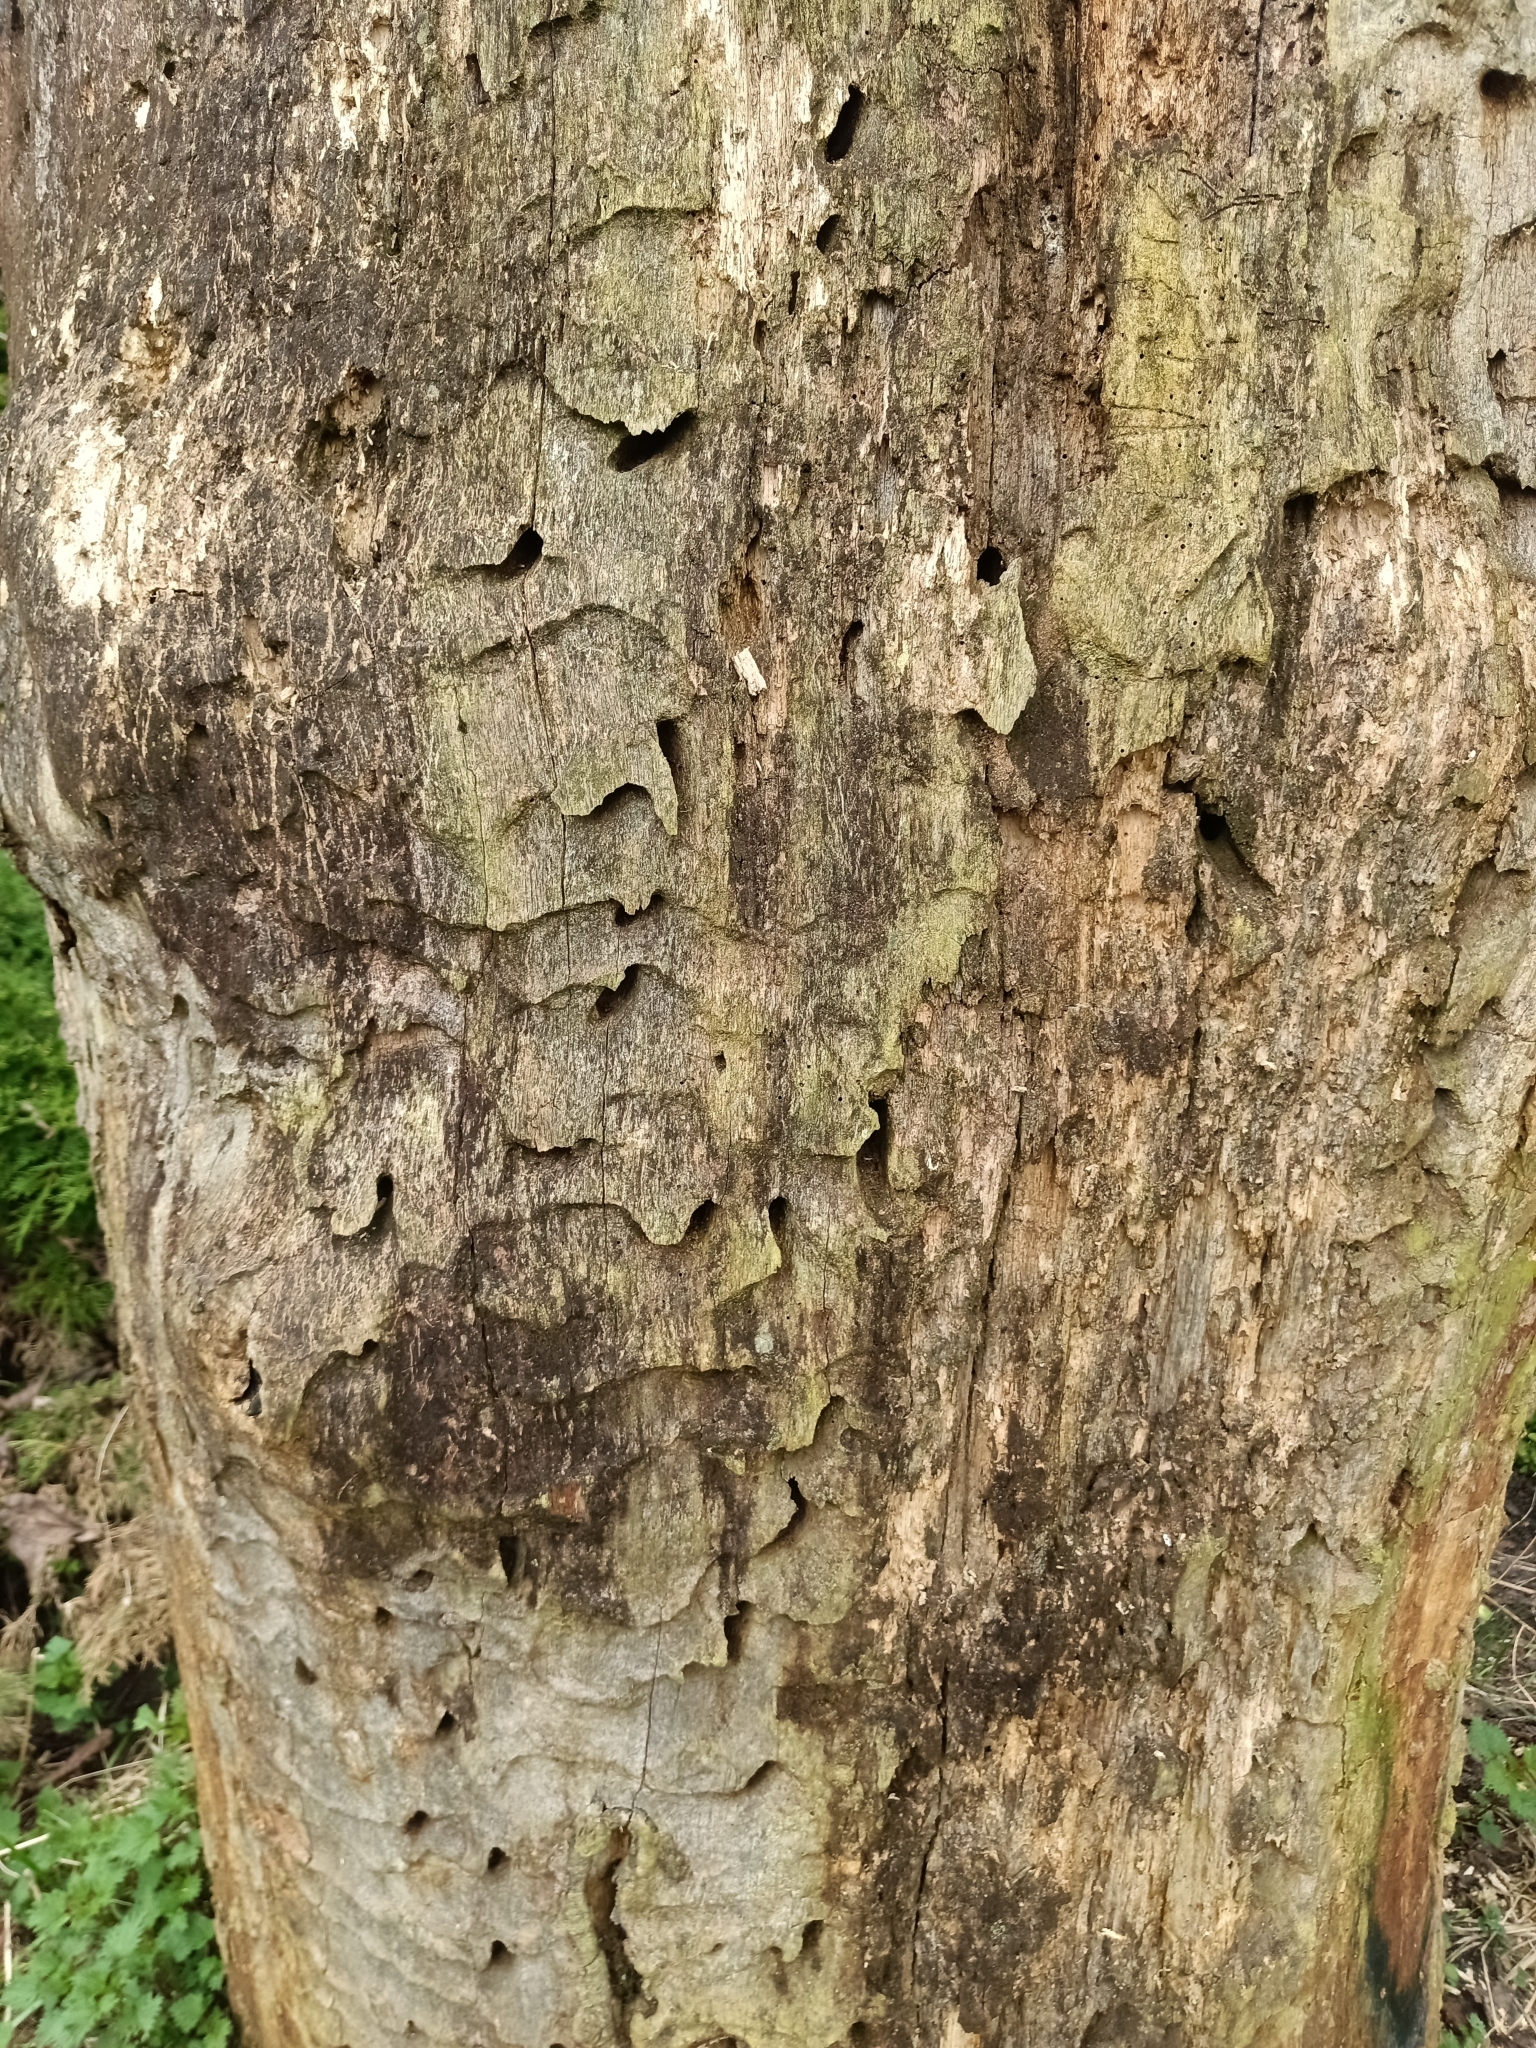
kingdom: Animalia
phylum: Arthropoda
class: Insecta
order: Coleoptera
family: Cerambycidae
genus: Cerambyx
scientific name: Cerambyx cerdo
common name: Cerambyx longicorn
